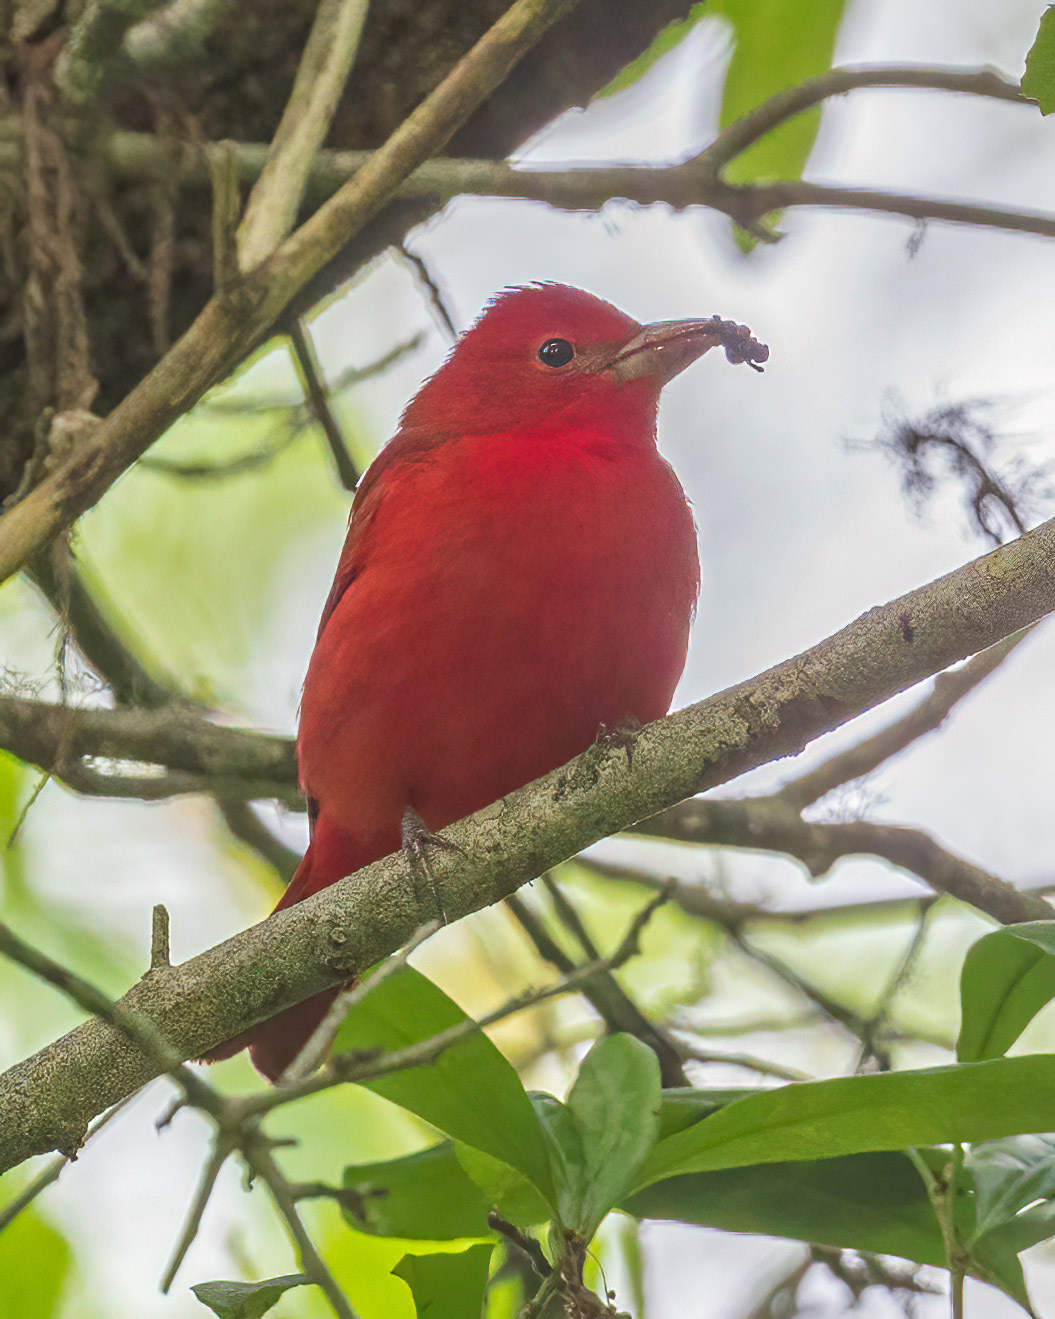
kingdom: Animalia
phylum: Chordata
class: Aves
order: Passeriformes
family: Cardinalidae
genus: Piranga
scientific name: Piranga rubra
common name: Summer tanager
